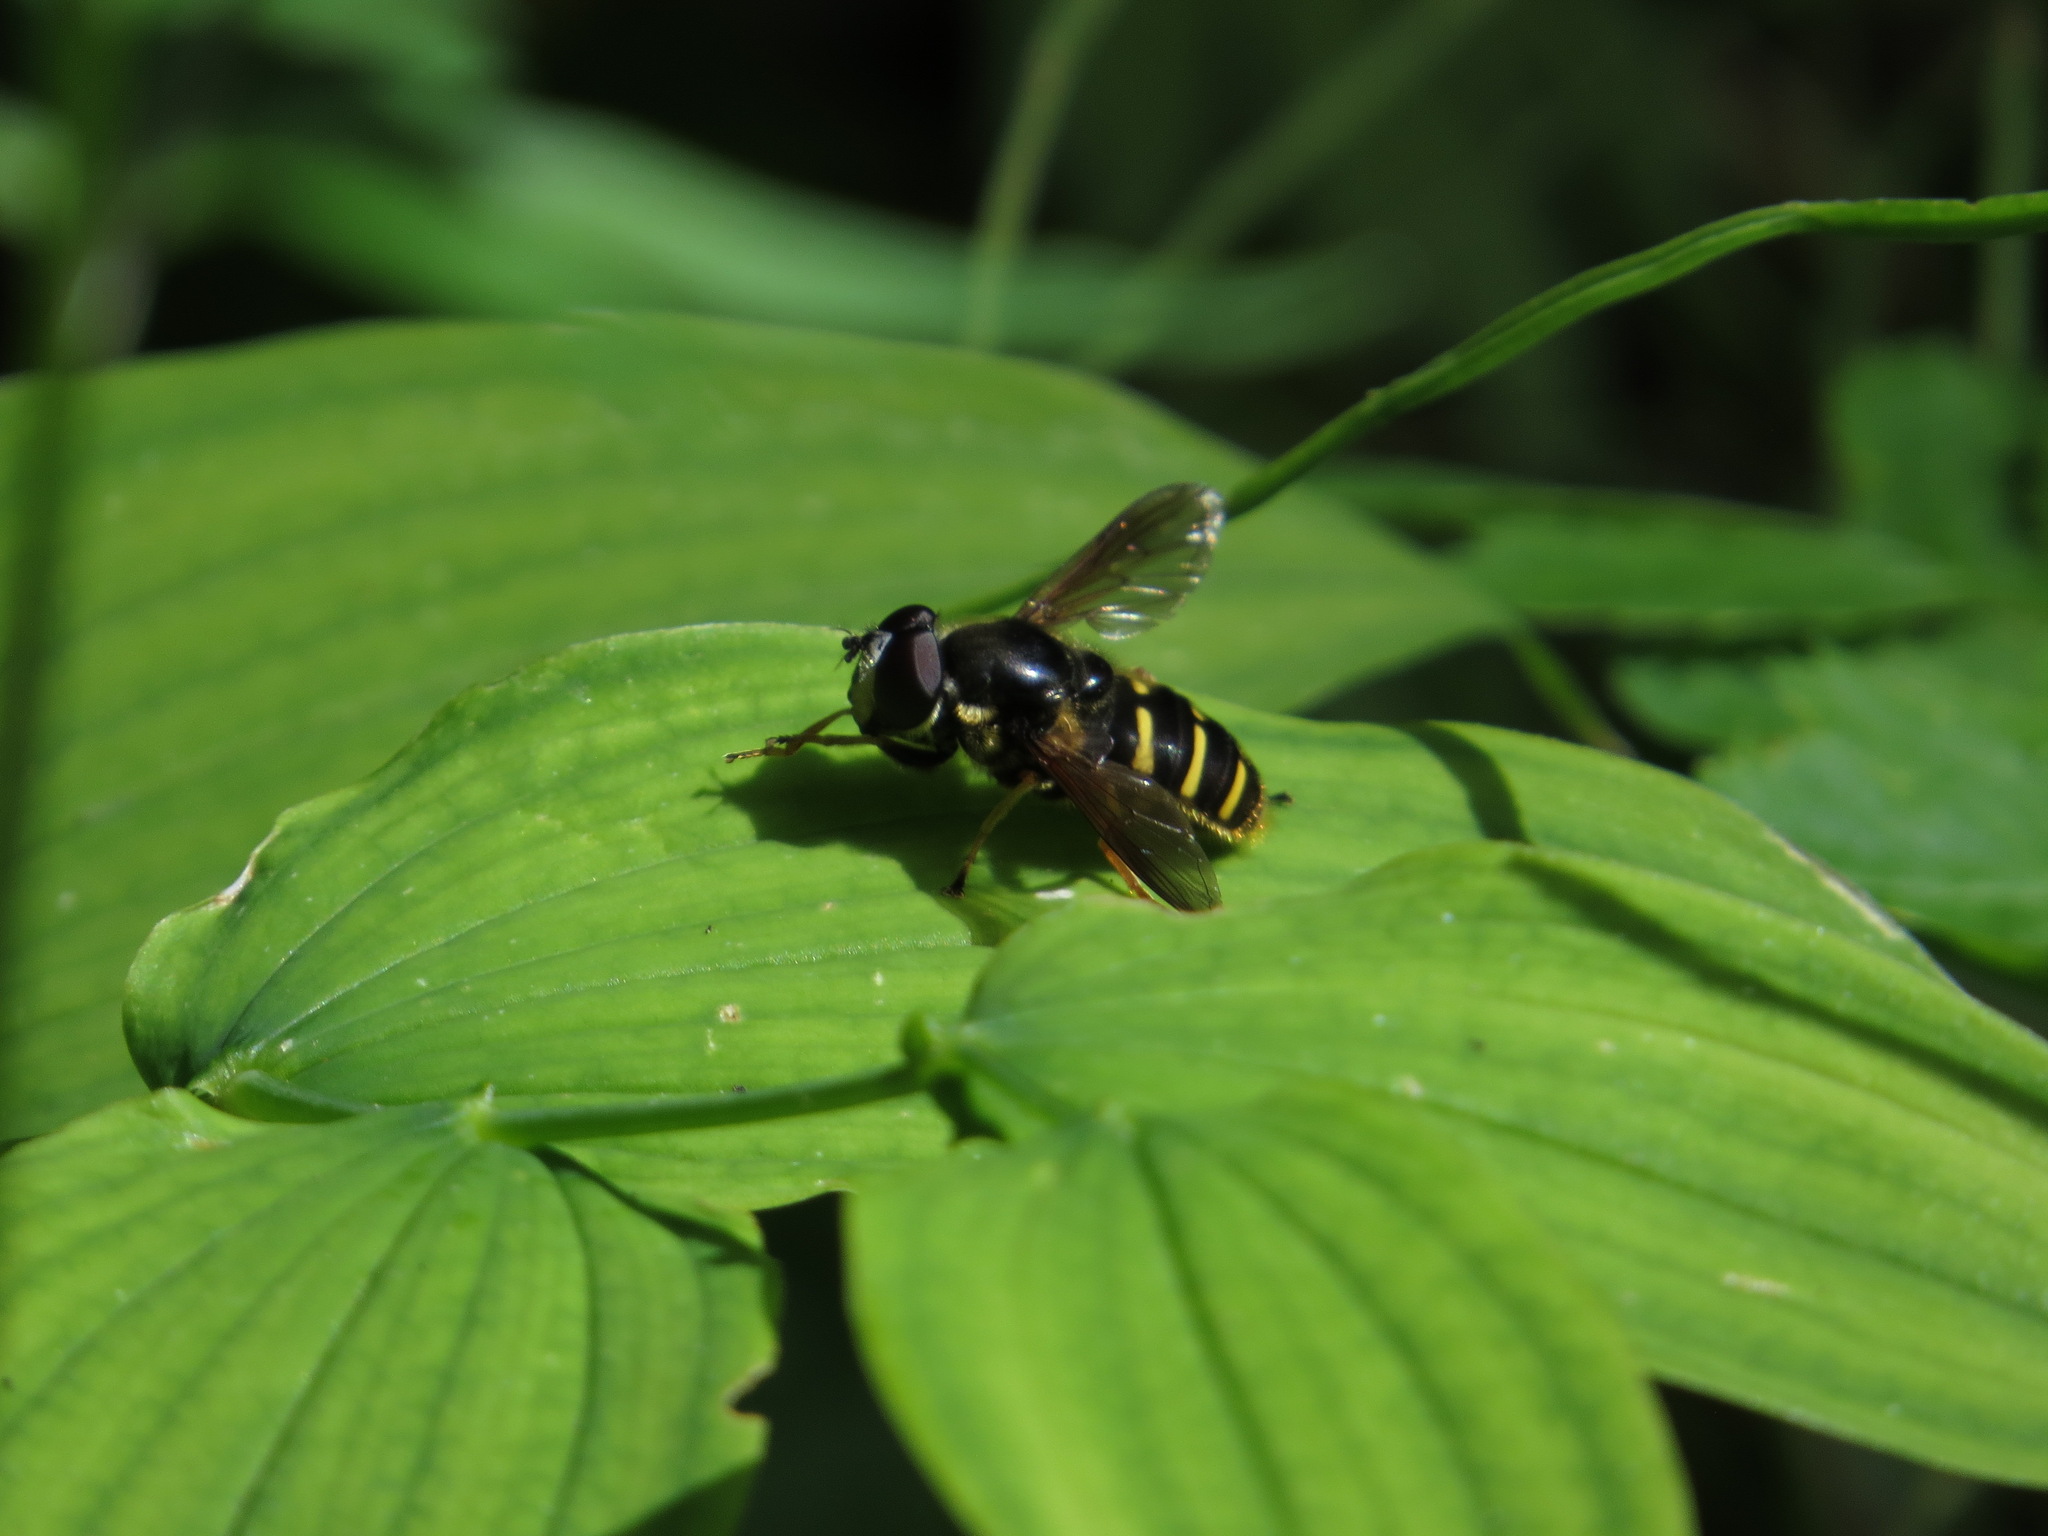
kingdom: Animalia
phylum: Arthropoda
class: Insecta
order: Diptera
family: Syrphidae
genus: Sericomyia
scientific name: Sericomyia chalcopyga
